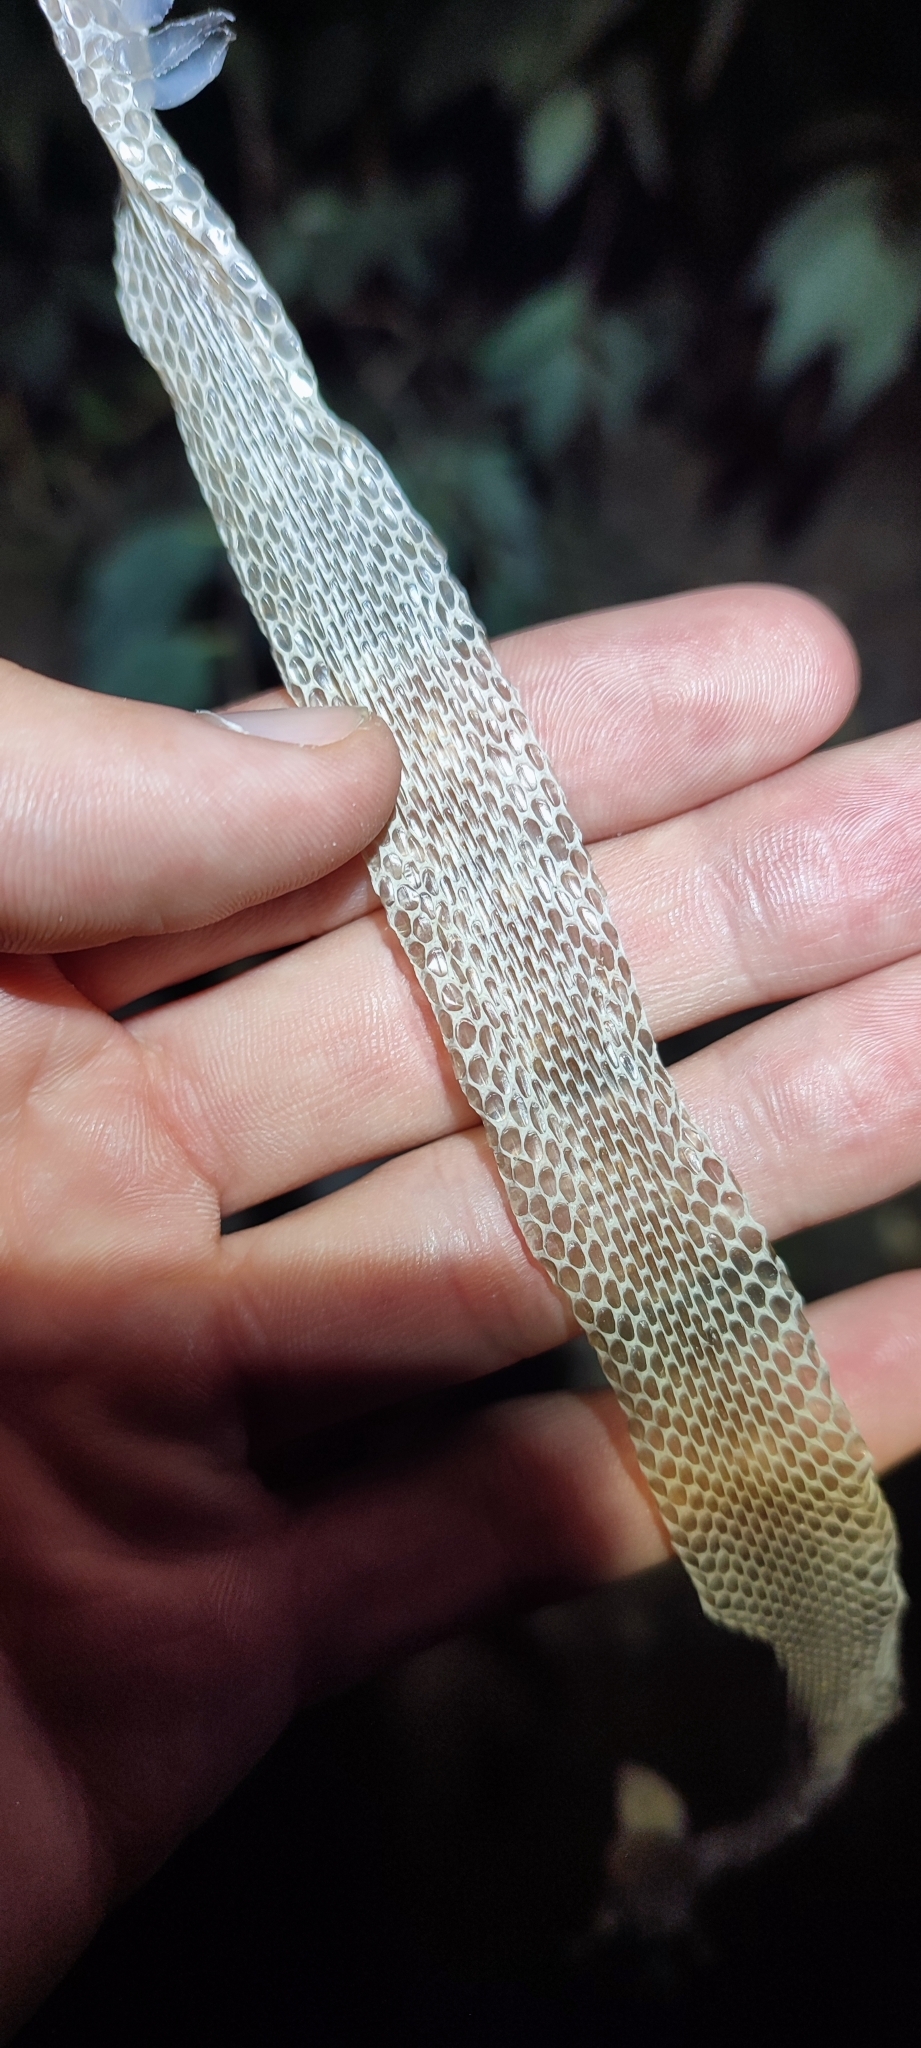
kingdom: Animalia
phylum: Chordata
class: Squamata
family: Colubridae
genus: Natrix
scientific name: Natrix maura
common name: Viperine water snake
